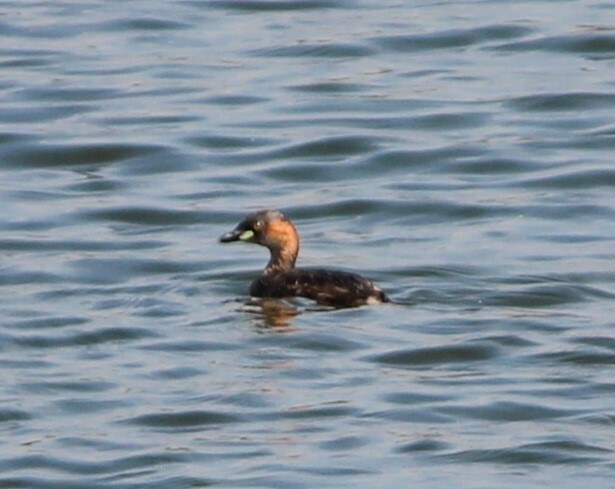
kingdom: Animalia
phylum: Chordata
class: Aves
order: Podicipediformes
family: Podicipedidae
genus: Tachybaptus
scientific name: Tachybaptus ruficollis
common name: Little grebe
